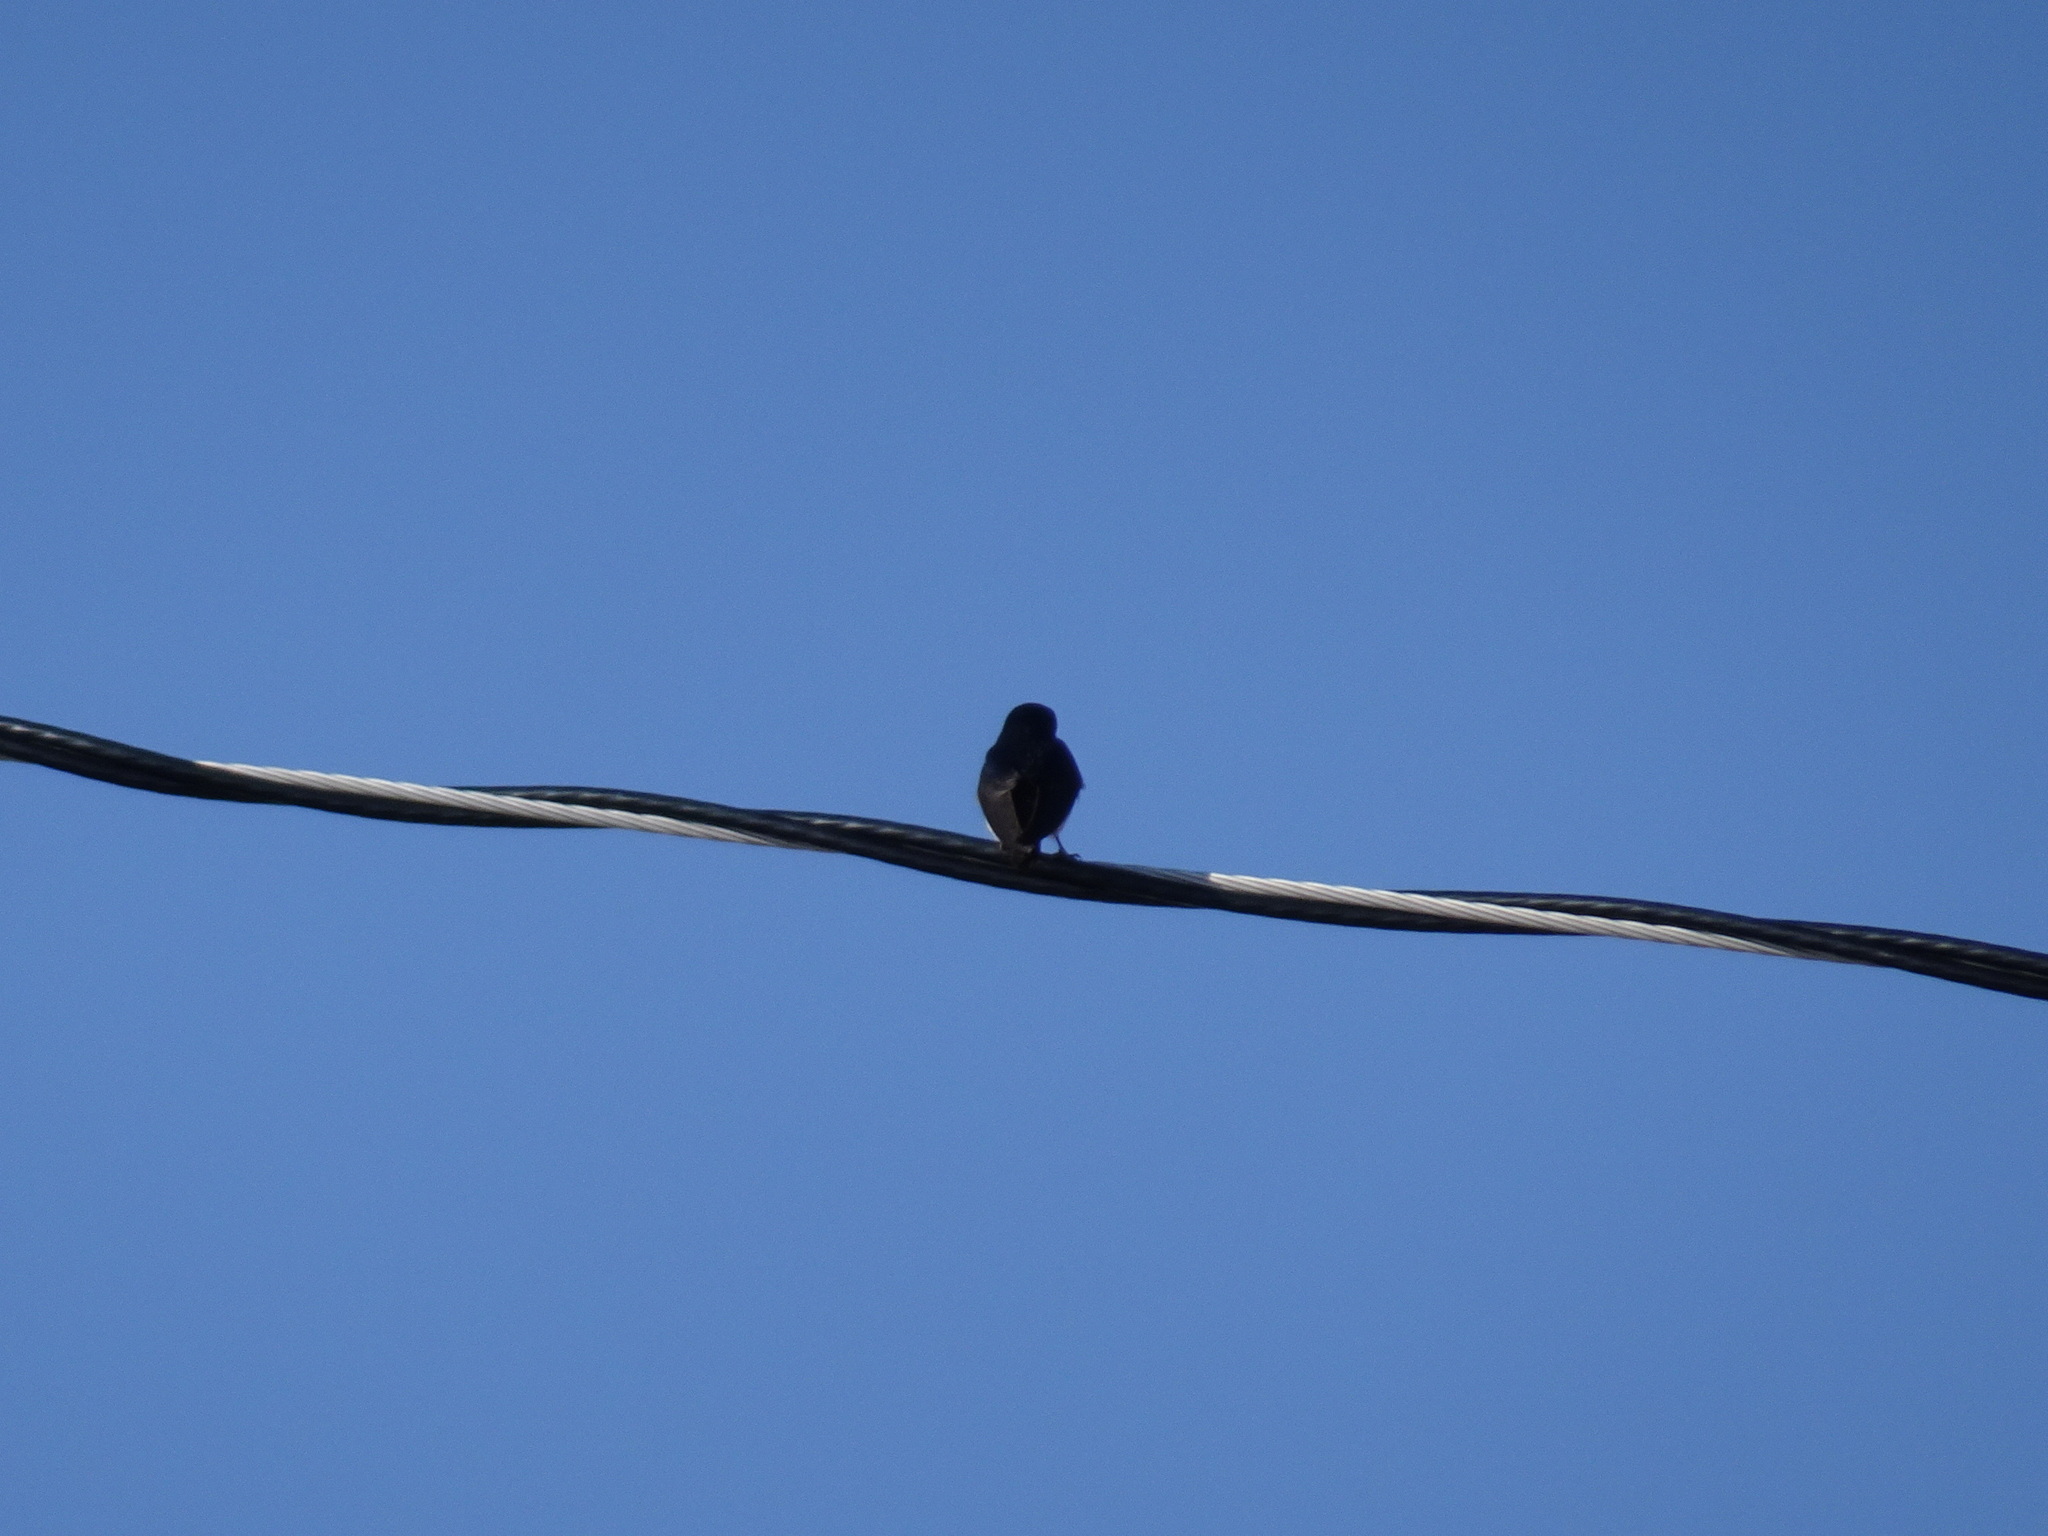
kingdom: Animalia
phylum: Chordata
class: Aves
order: Passeriformes
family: Hirundinidae
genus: Tachycineta
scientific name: Tachycineta bicolor
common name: Tree swallow
